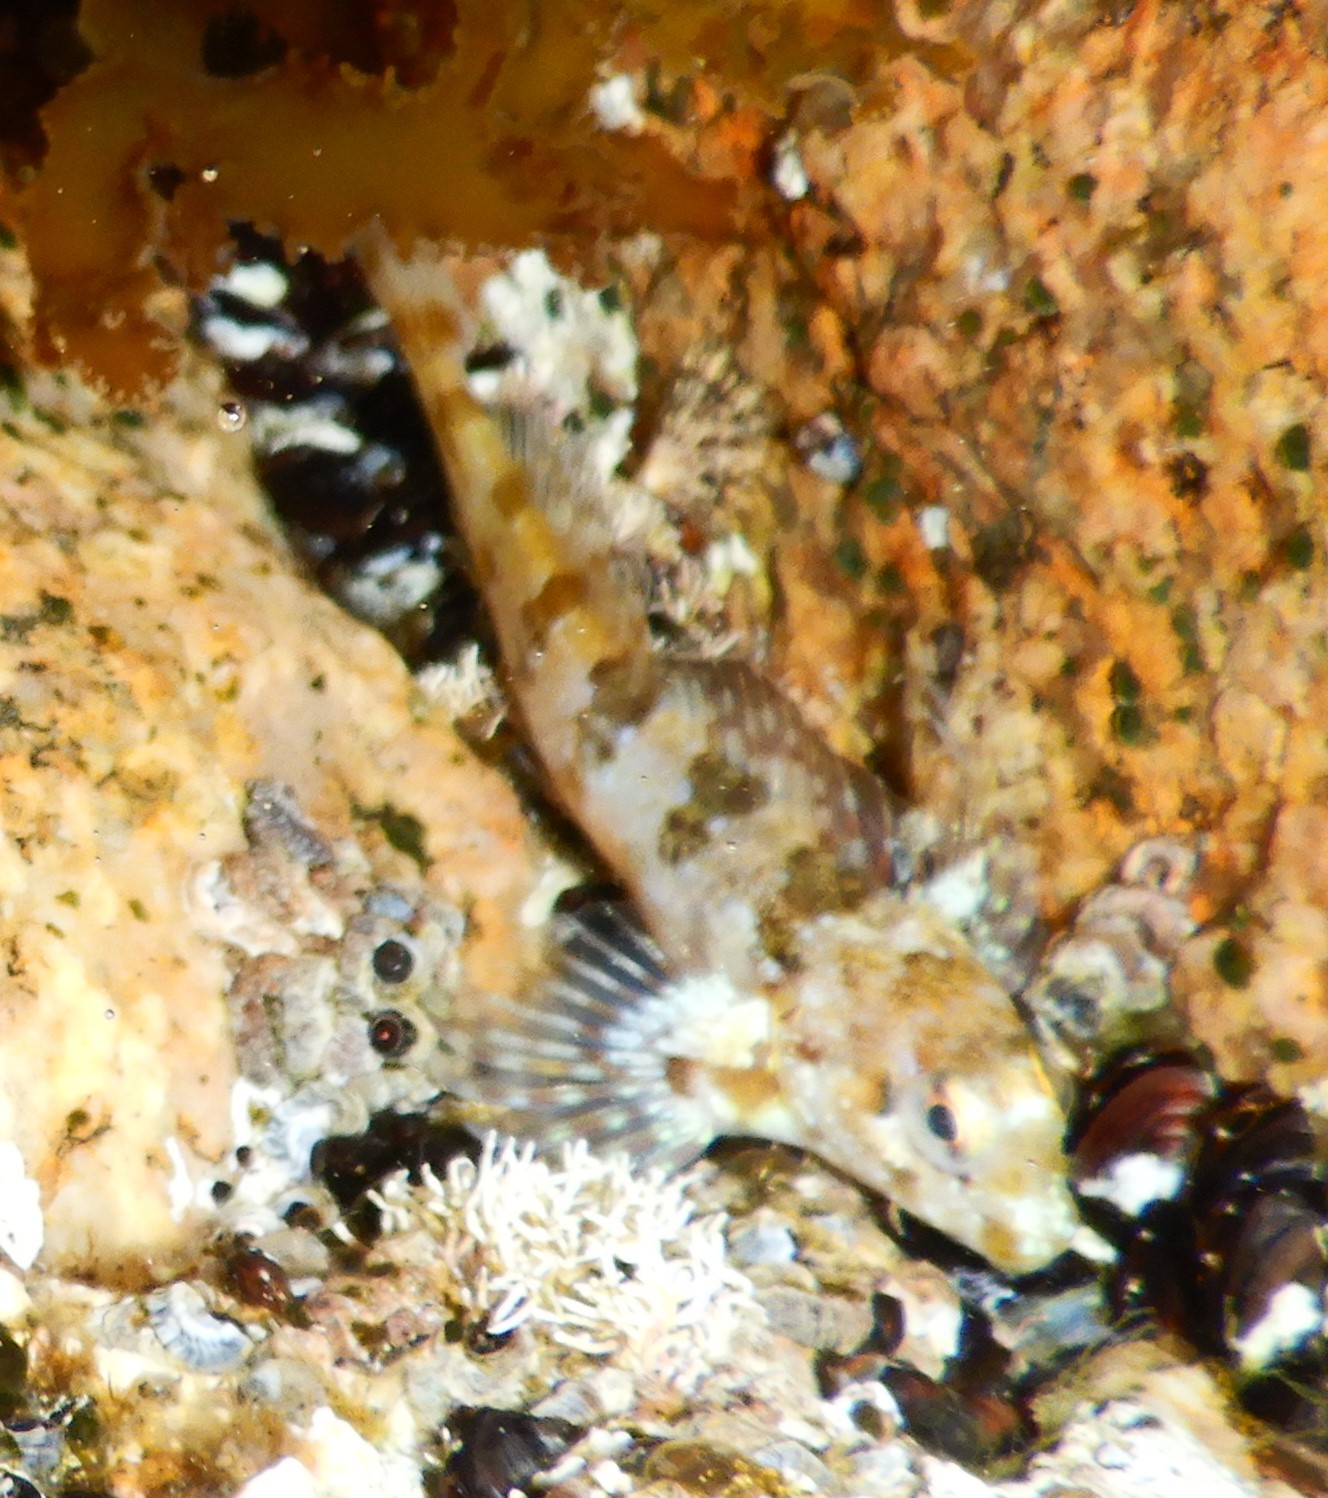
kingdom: Animalia
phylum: Chordata
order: Perciformes
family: Blenniidae
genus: Lipophrys
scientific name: Lipophrys trigloides
